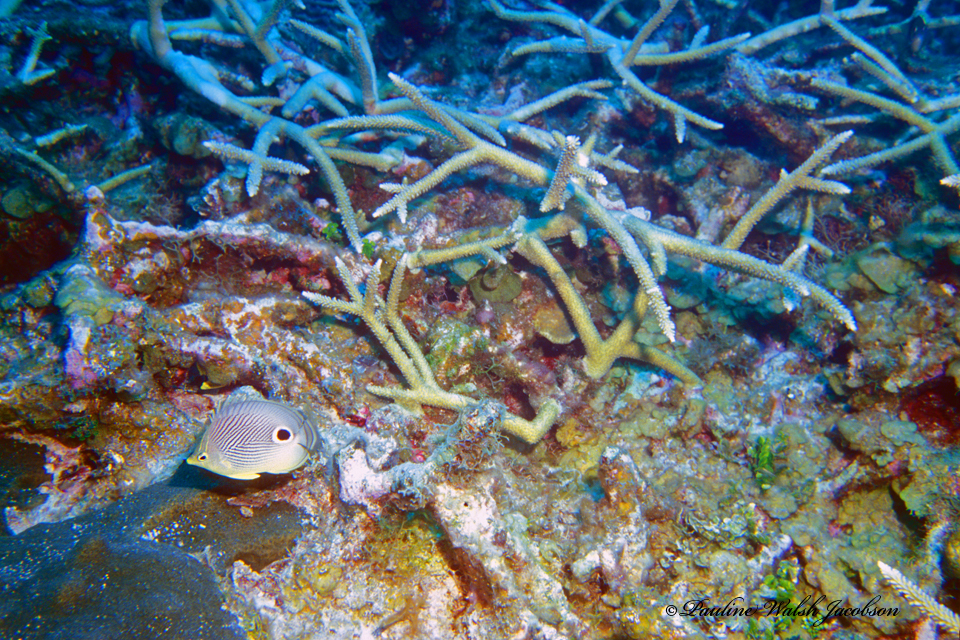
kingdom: Animalia
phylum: Chordata
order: Perciformes
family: Chaetodontidae
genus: Chaetodon
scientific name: Chaetodon capistratus
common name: Kete
